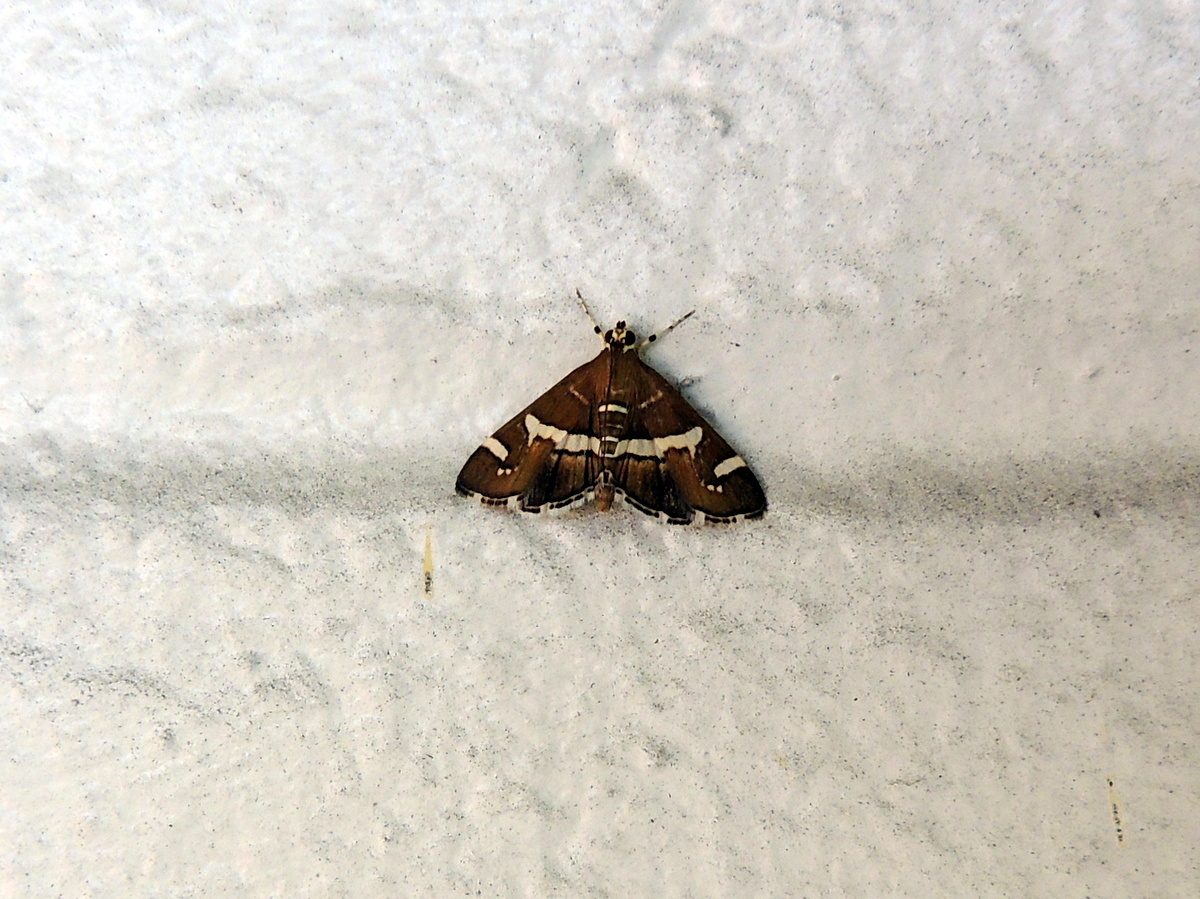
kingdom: Animalia
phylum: Arthropoda
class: Insecta
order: Lepidoptera
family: Crambidae
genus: Spoladea
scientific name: Spoladea recurvalis
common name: Beet webworm moth
